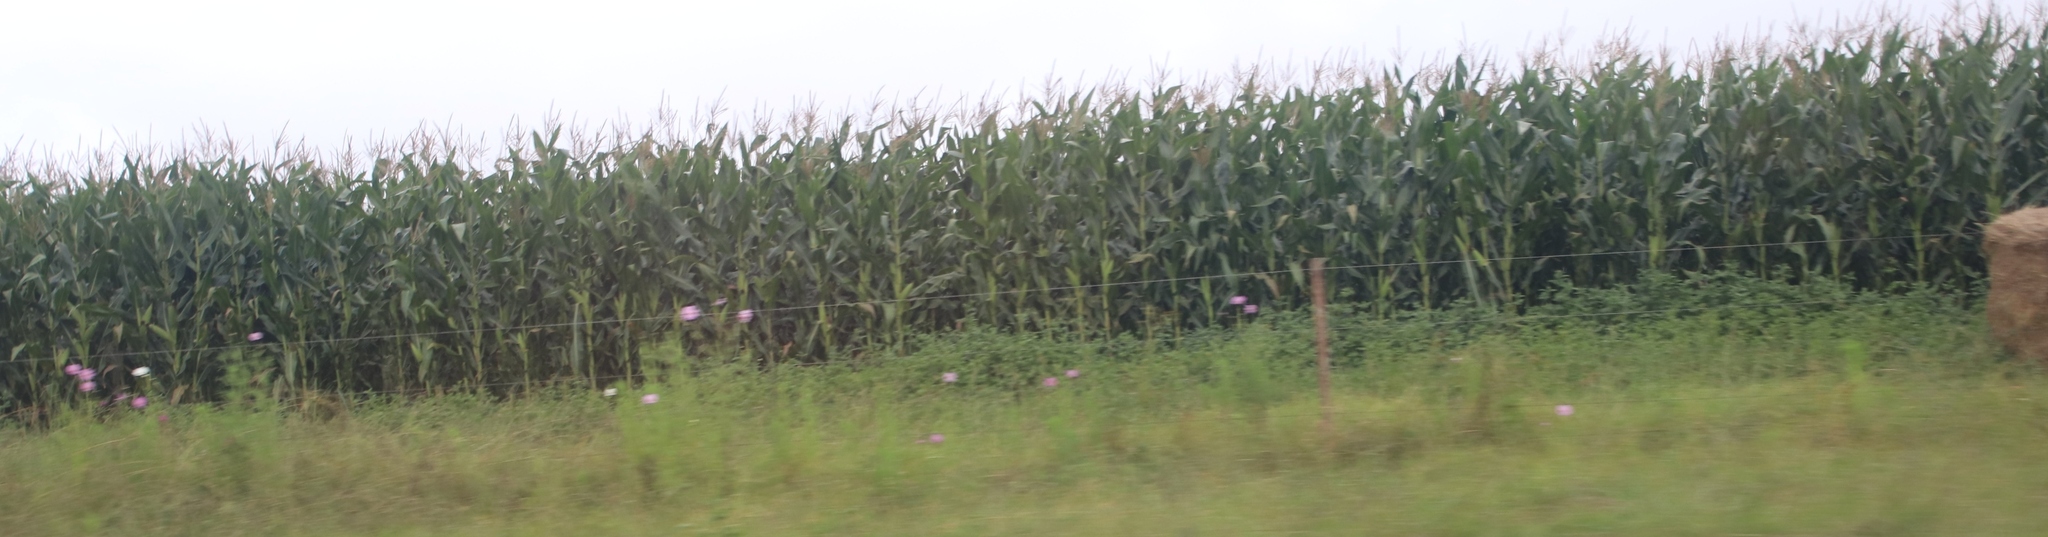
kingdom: Plantae
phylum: Tracheophyta
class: Magnoliopsida
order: Asterales
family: Asteraceae
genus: Cosmos
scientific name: Cosmos bipinnatus
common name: Garden cosmos
